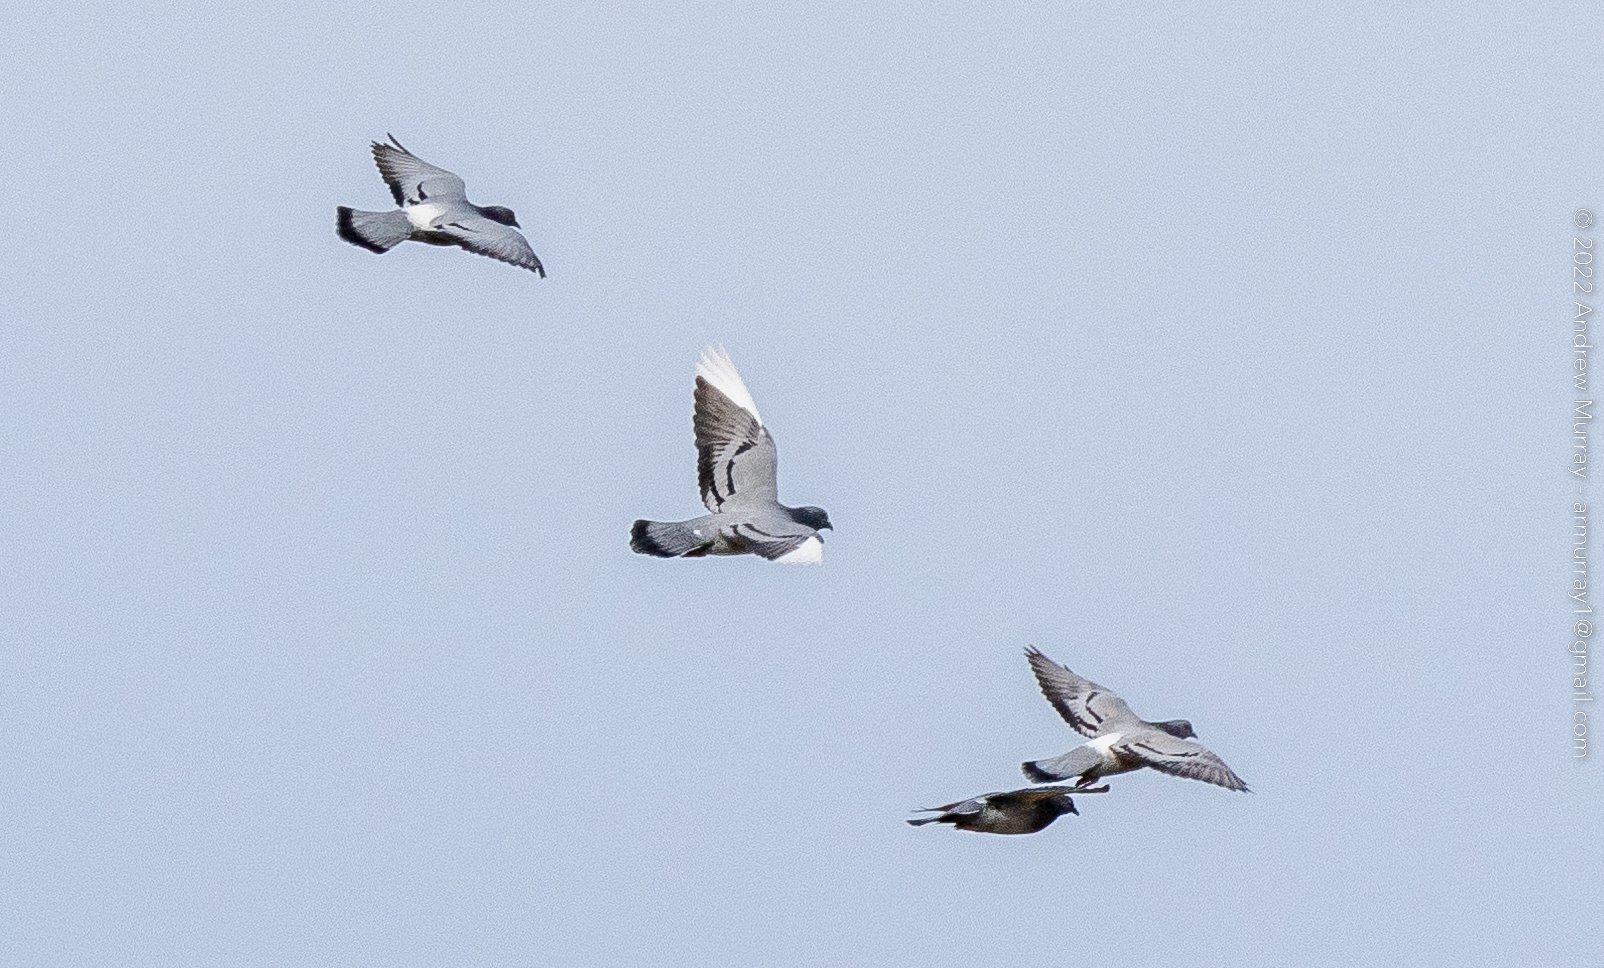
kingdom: Animalia
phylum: Chordata
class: Aves
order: Columbiformes
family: Columbidae
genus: Columba
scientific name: Columba livia
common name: Rock pigeon
